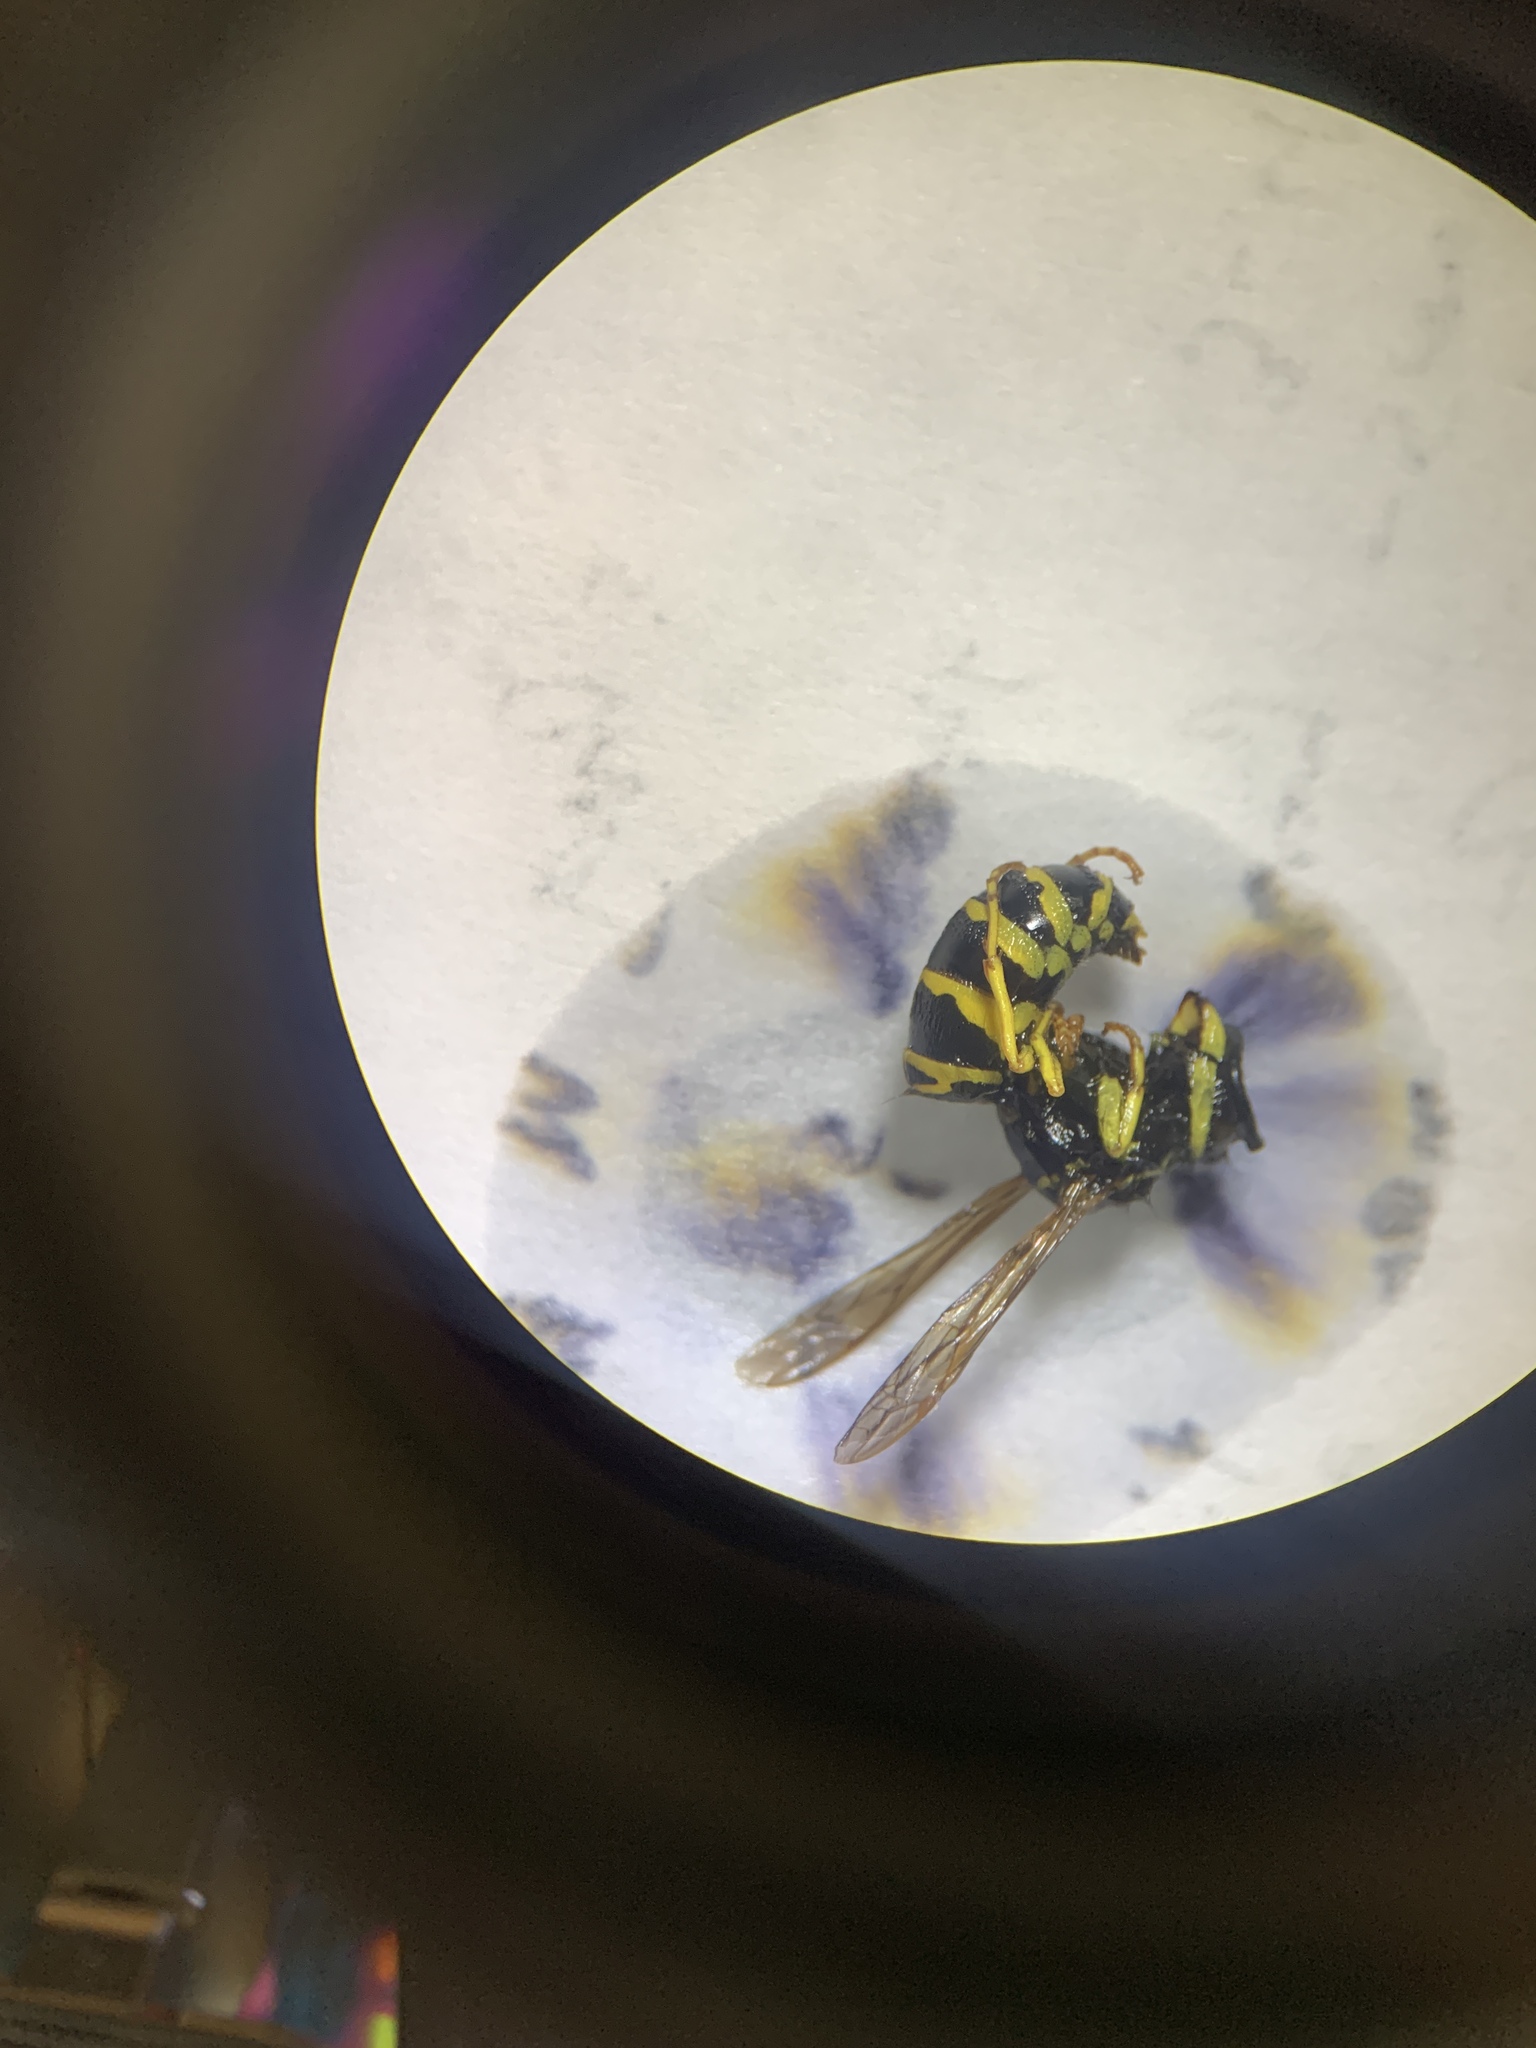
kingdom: Animalia
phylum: Arthropoda
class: Insecta
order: Hymenoptera
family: Eumenidae
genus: Polistes
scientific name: Polistes dominula
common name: Paper wasp
